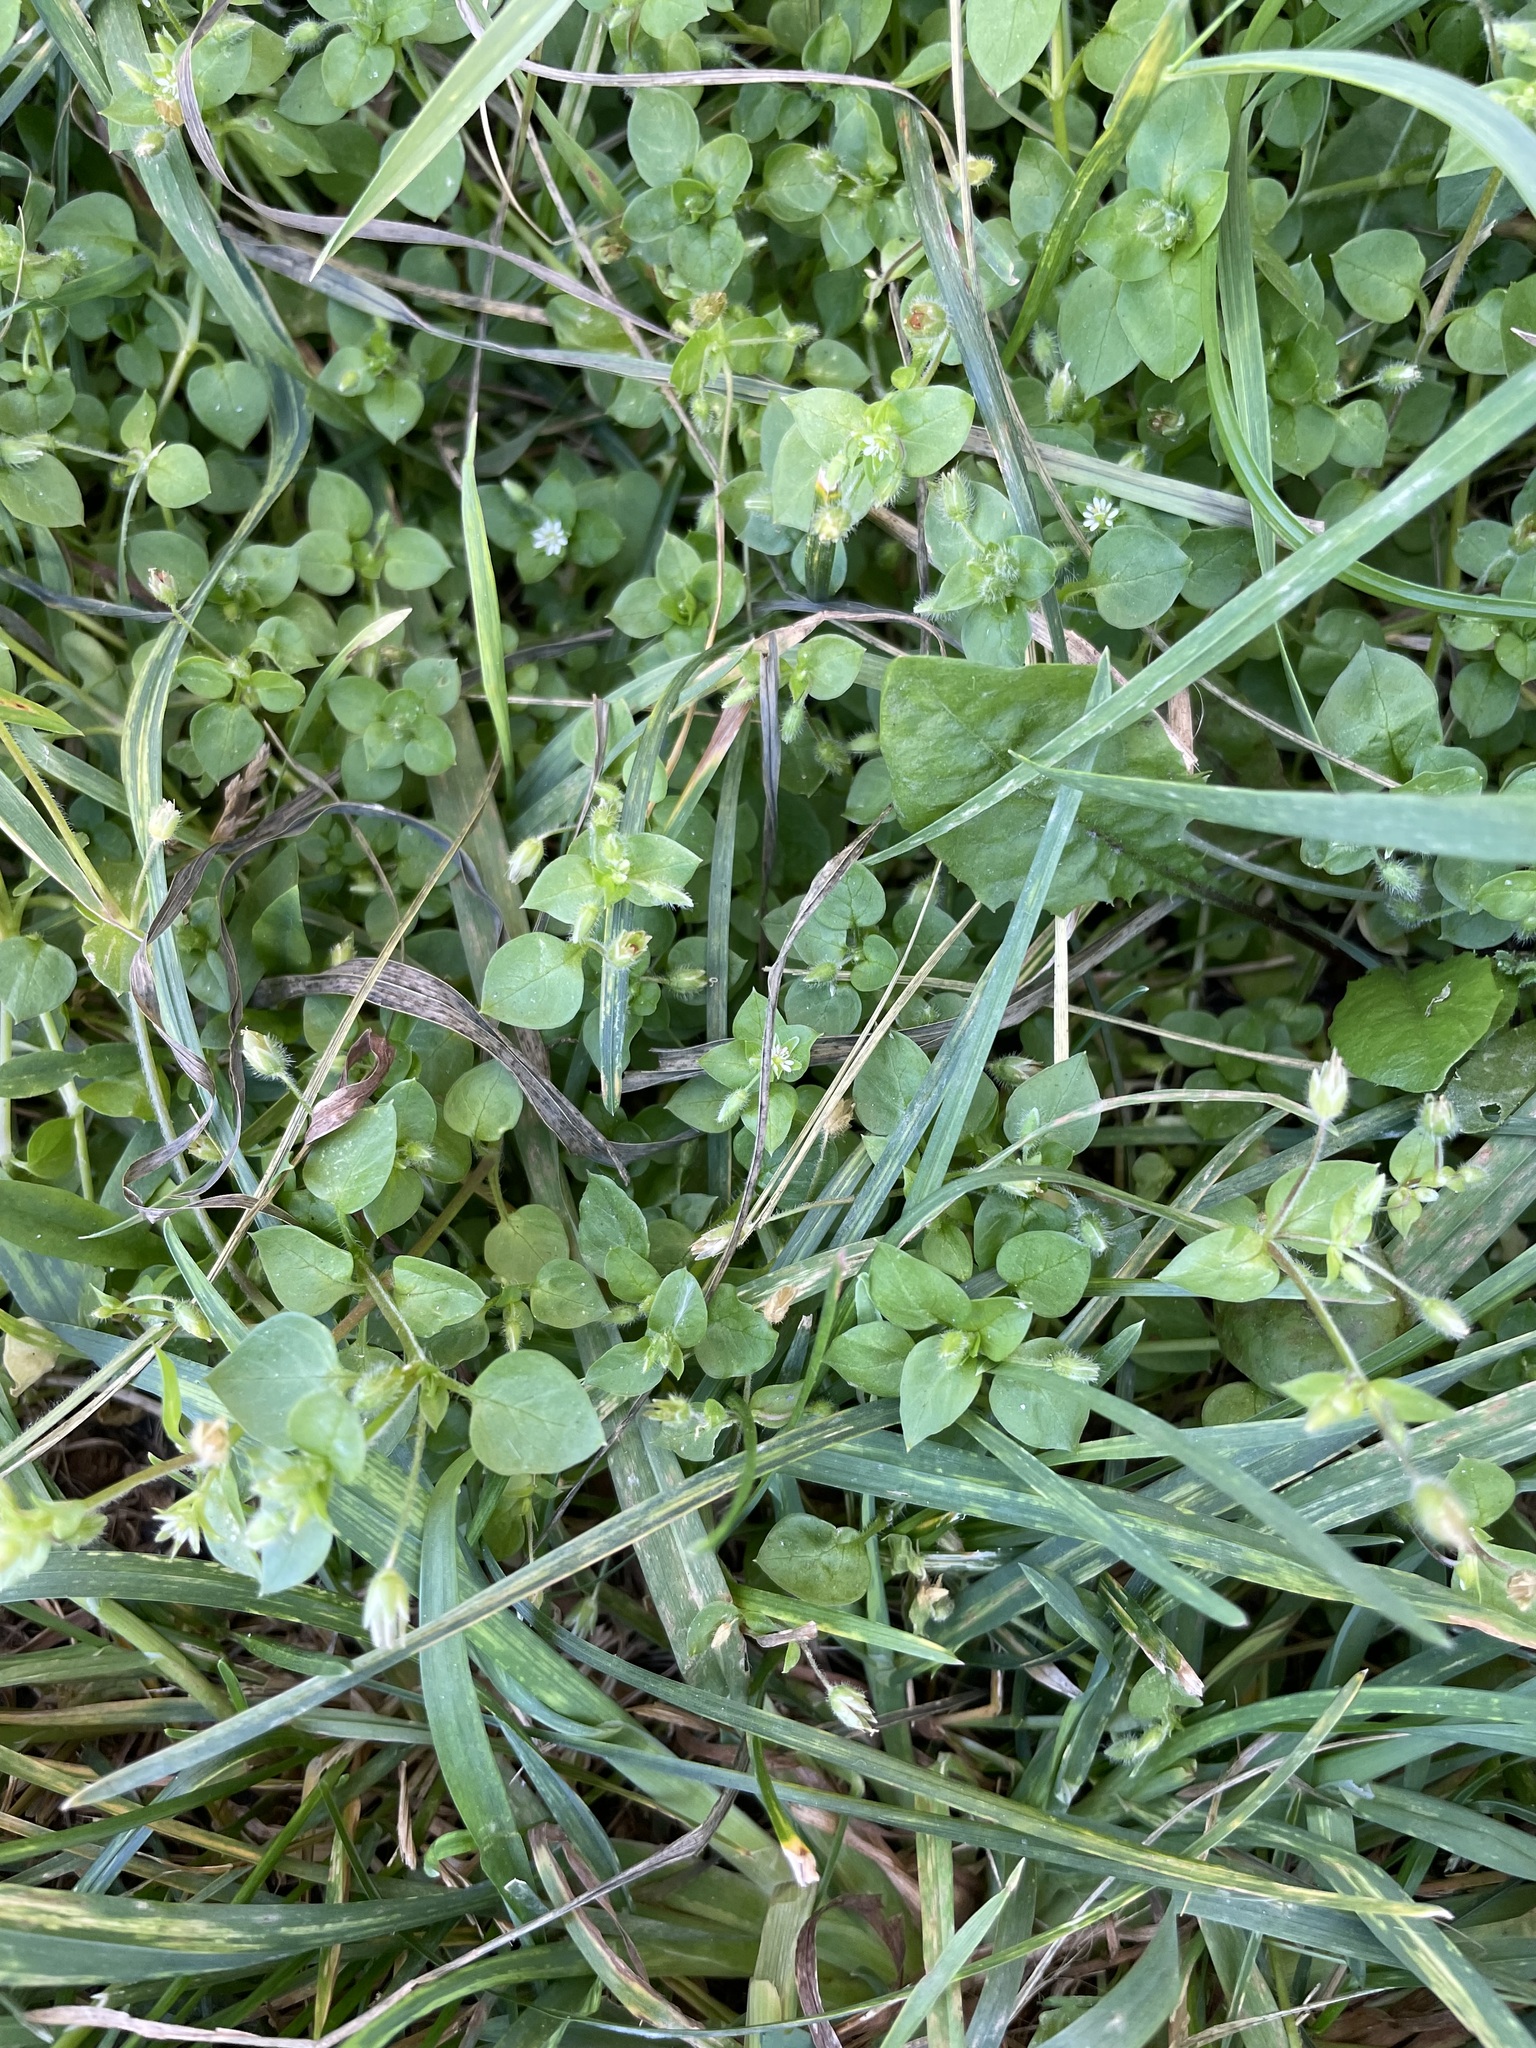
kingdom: Plantae
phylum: Tracheophyta
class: Magnoliopsida
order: Caryophyllales
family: Caryophyllaceae
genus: Stellaria
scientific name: Stellaria media
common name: Common chickweed
